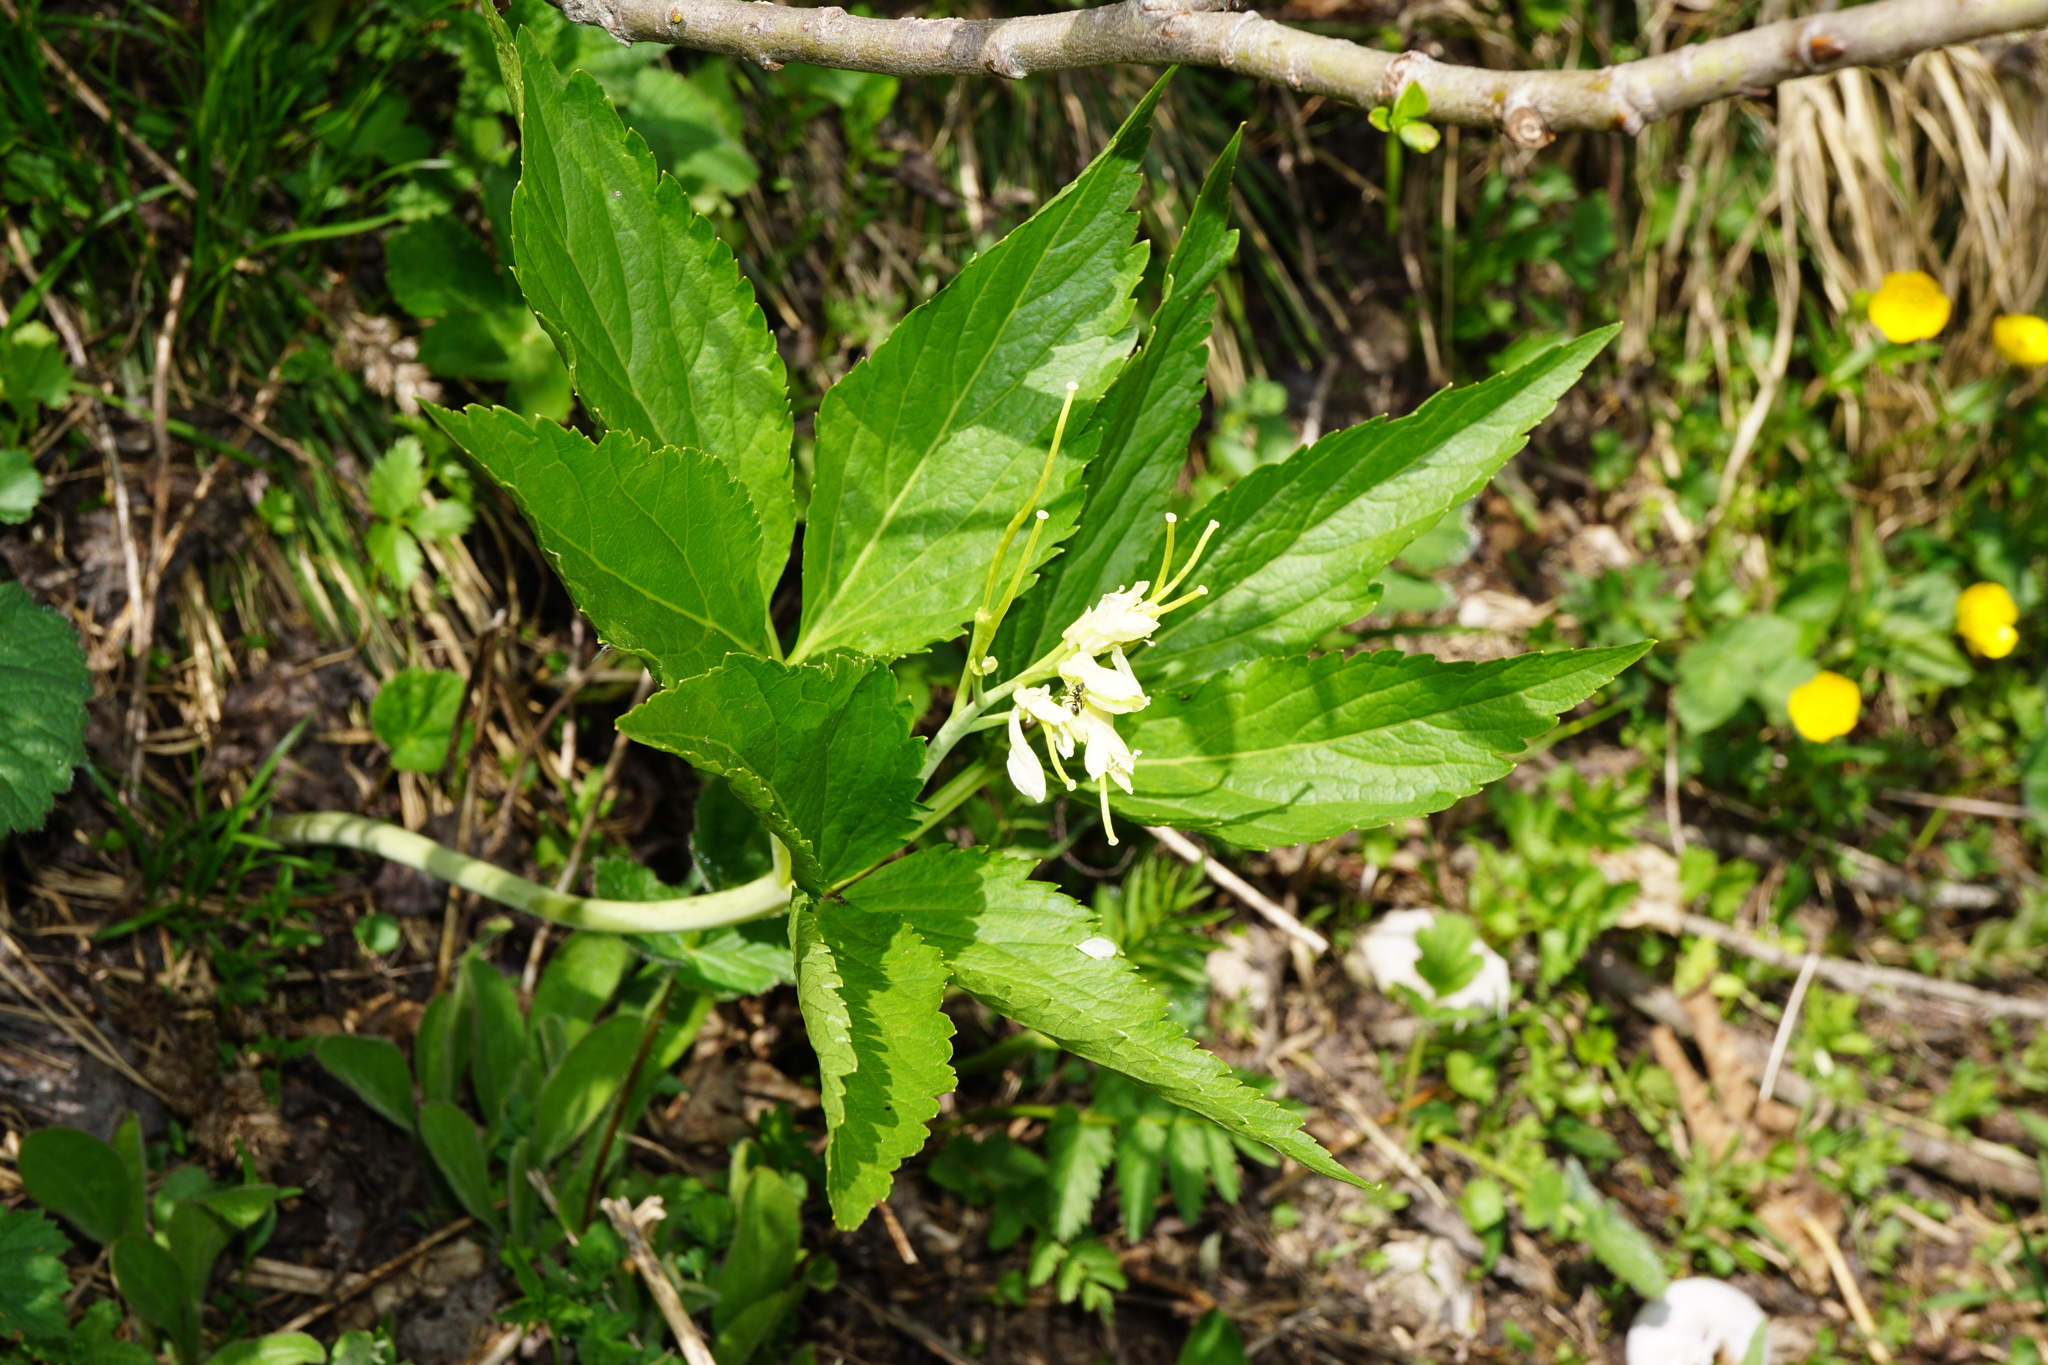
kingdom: Plantae
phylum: Tracheophyta
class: Magnoliopsida
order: Brassicales
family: Brassicaceae
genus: Cardamine
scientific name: Cardamine enneaphyllos
